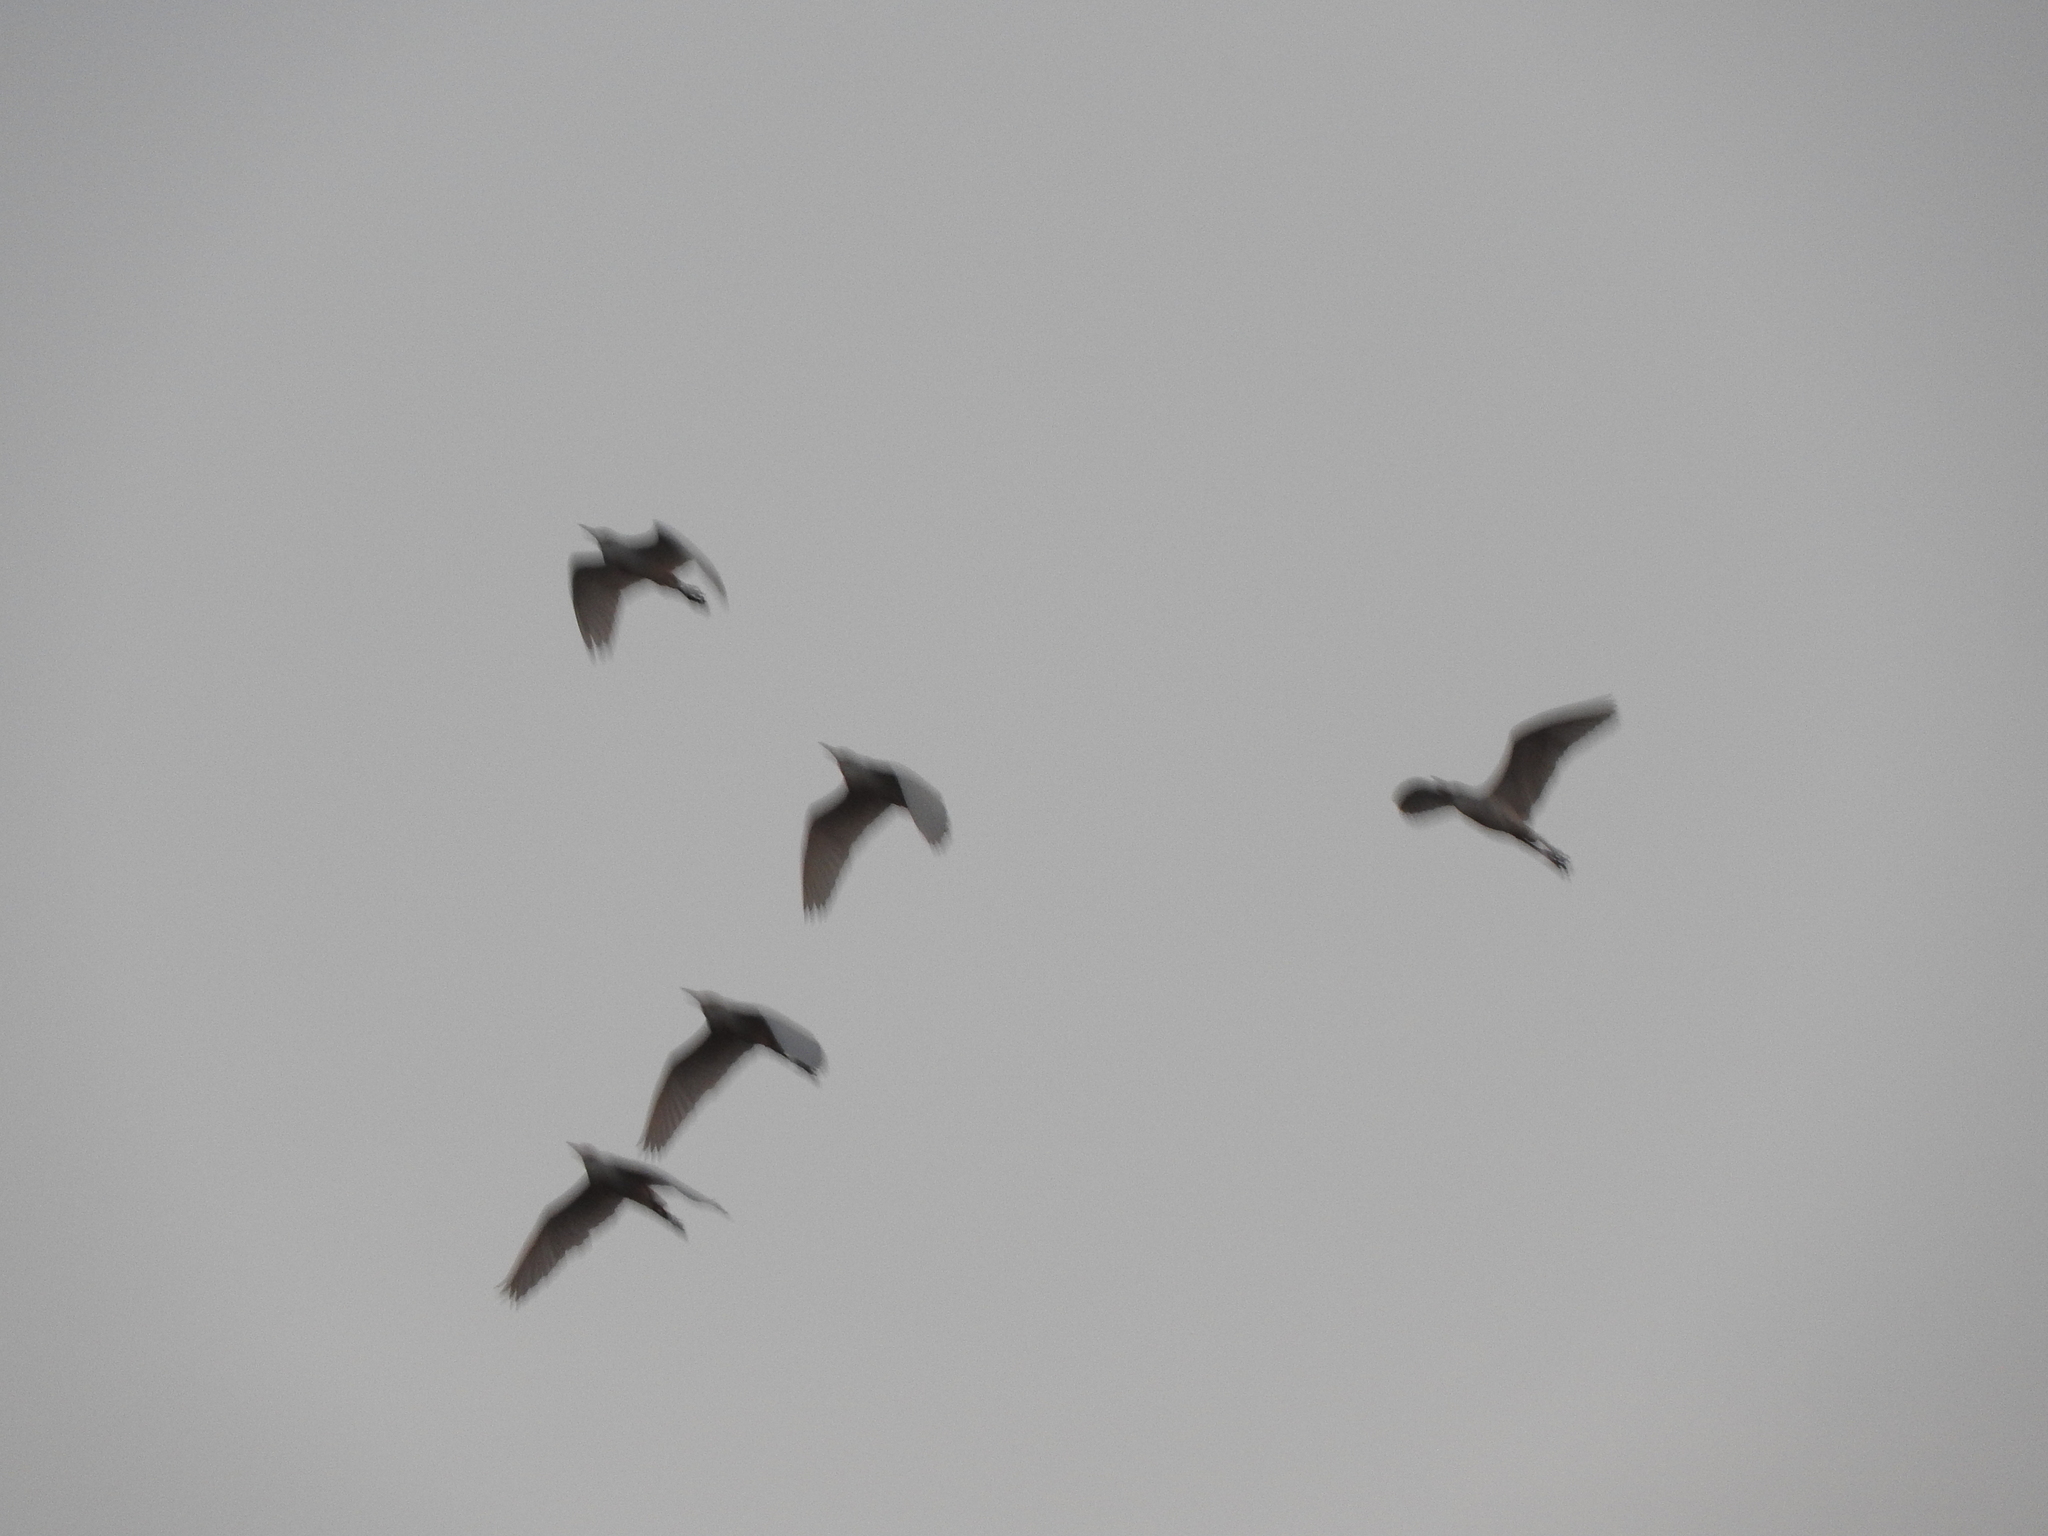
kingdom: Animalia
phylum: Chordata
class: Aves
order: Pelecaniformes
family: Ardeidae
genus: Bubulcus
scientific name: Bubulcus ibis
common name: Cattle egret
